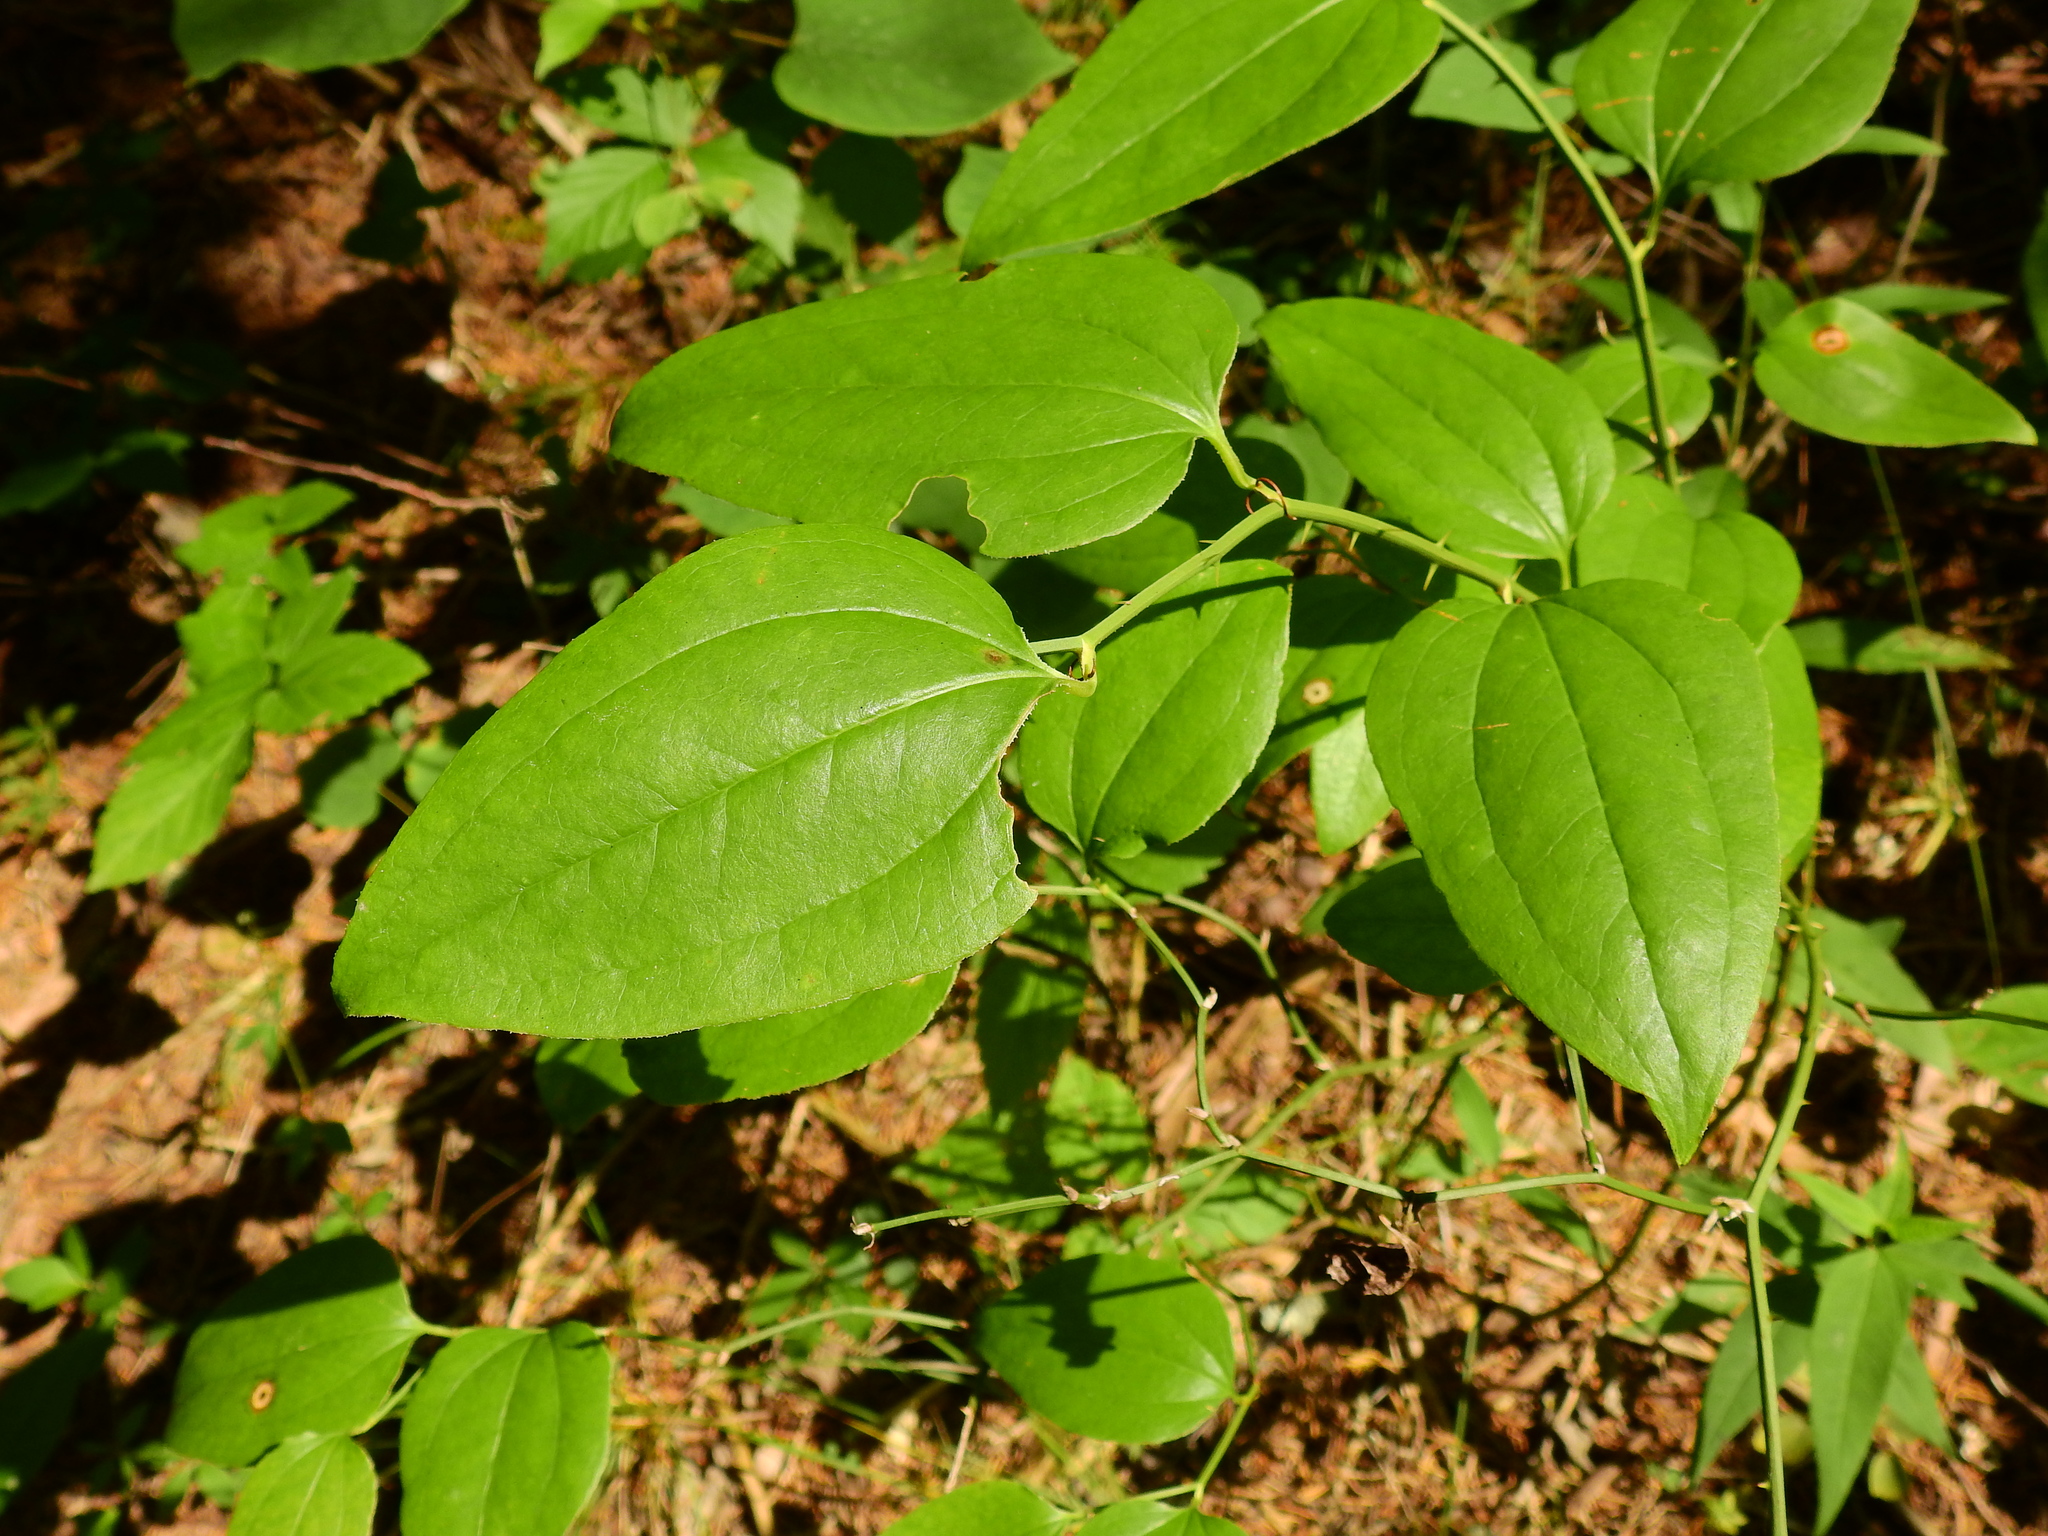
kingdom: Plantae
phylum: Tracheophyta
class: Liliopsida
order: Liliales
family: Smilacaceae
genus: Smilax
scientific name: Smilax tamnoides
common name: Hellfetter
